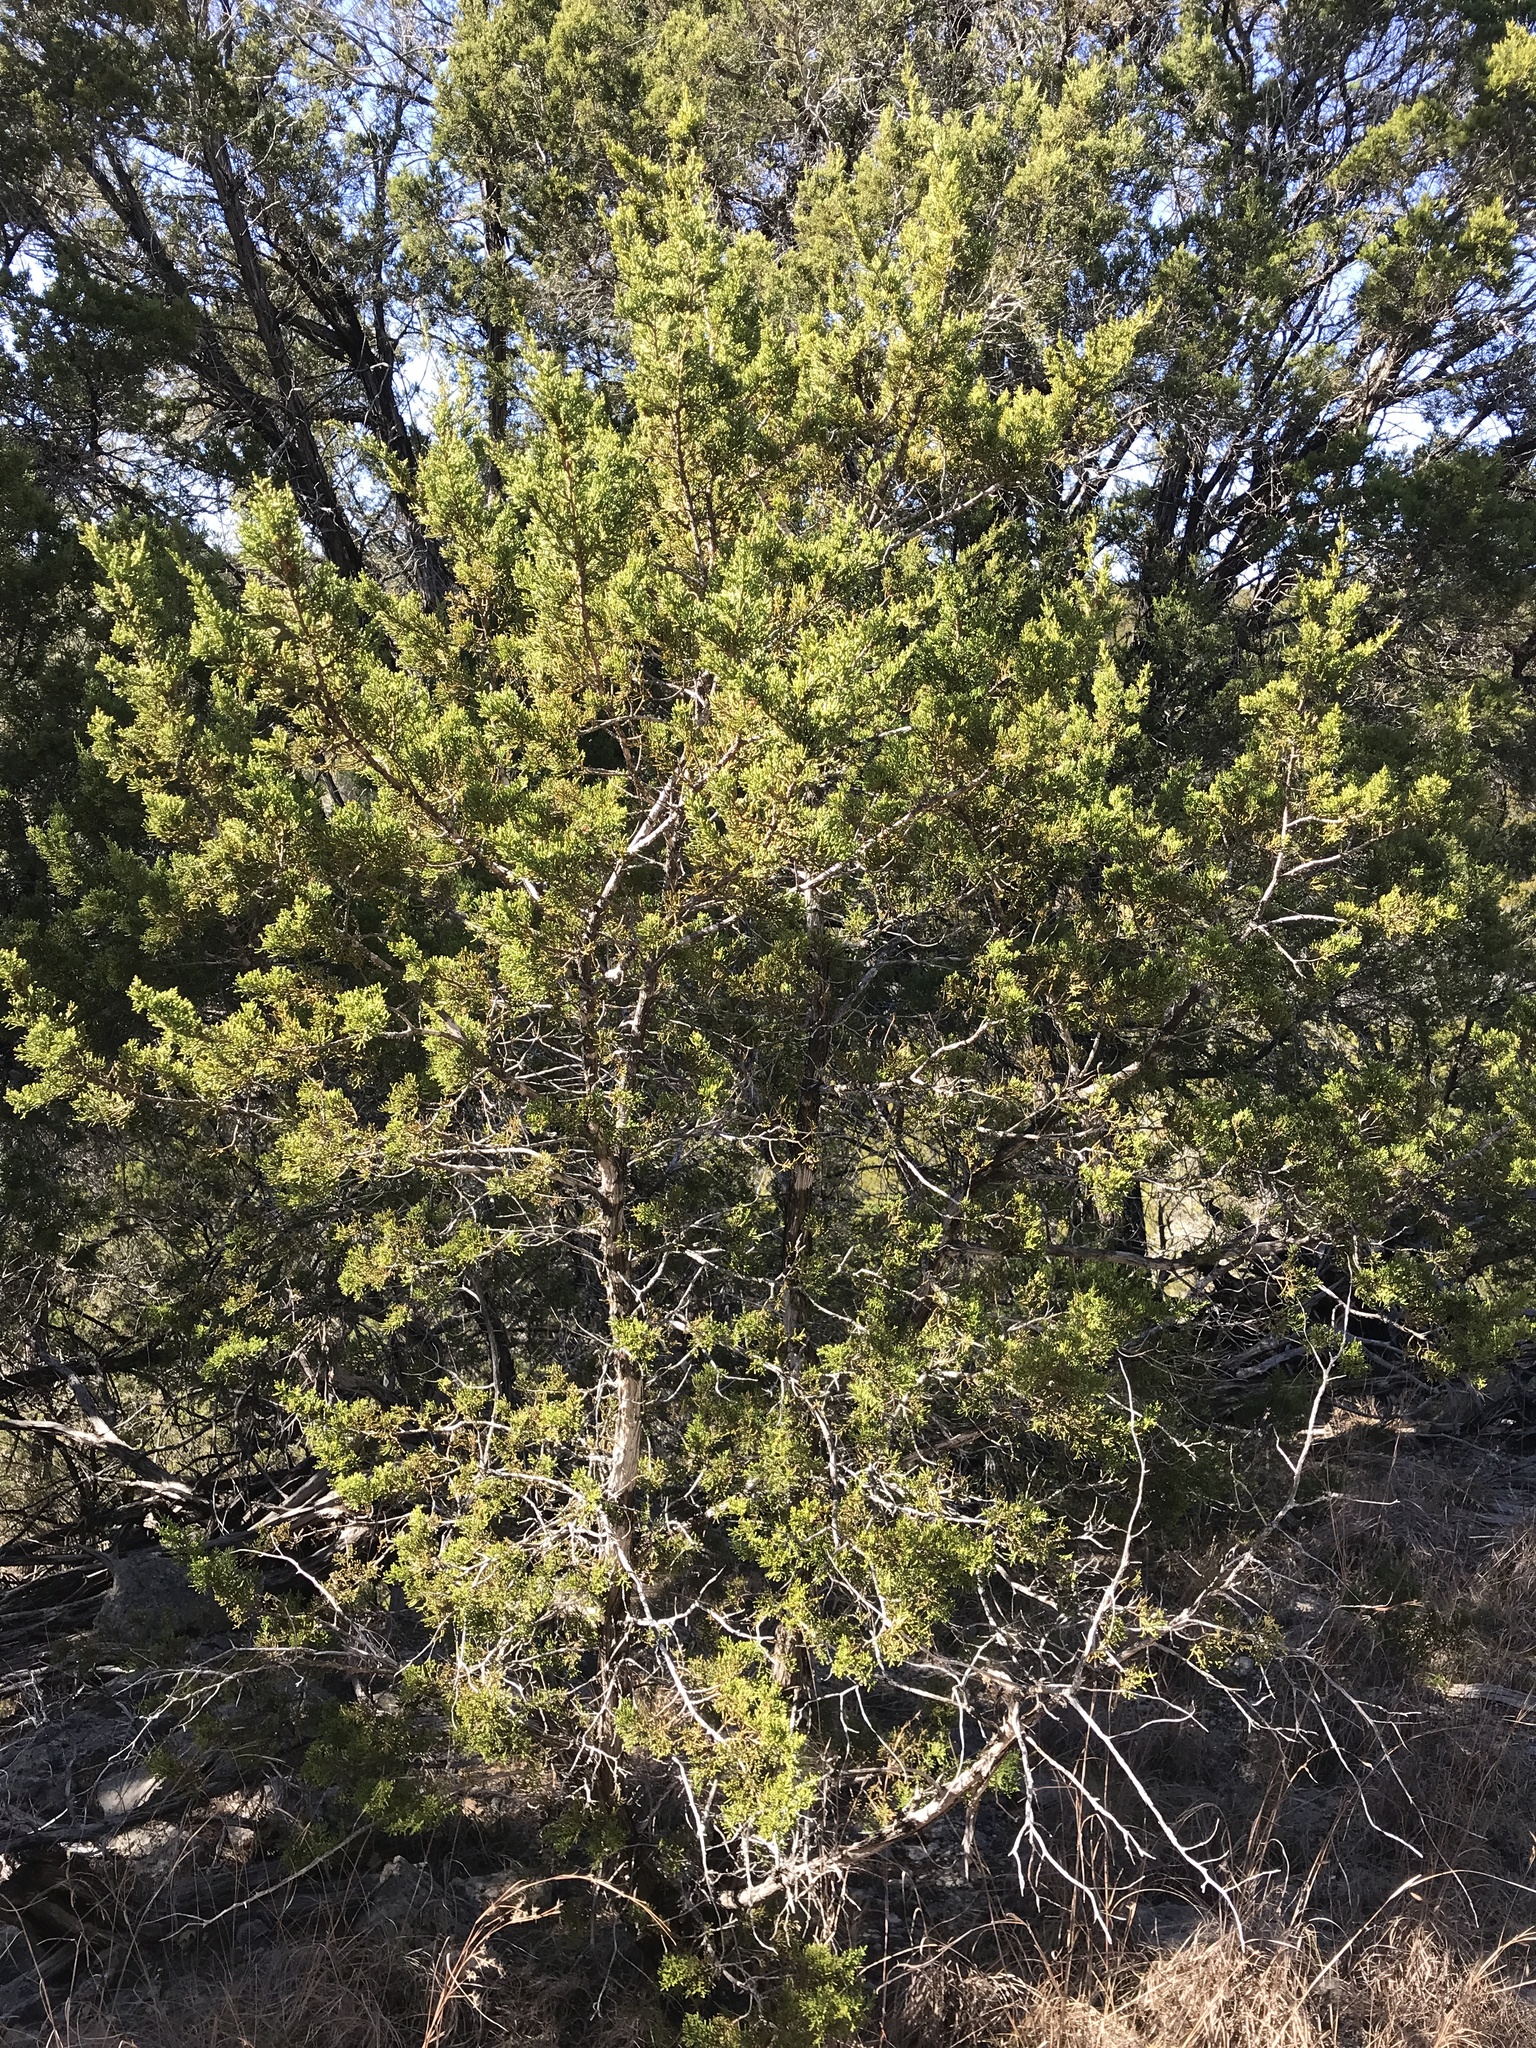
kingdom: Fungi
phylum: Ascomycota
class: Lecanoromycetes
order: Ostropales
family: Stictidaceae
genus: Robergea
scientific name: Robergea
